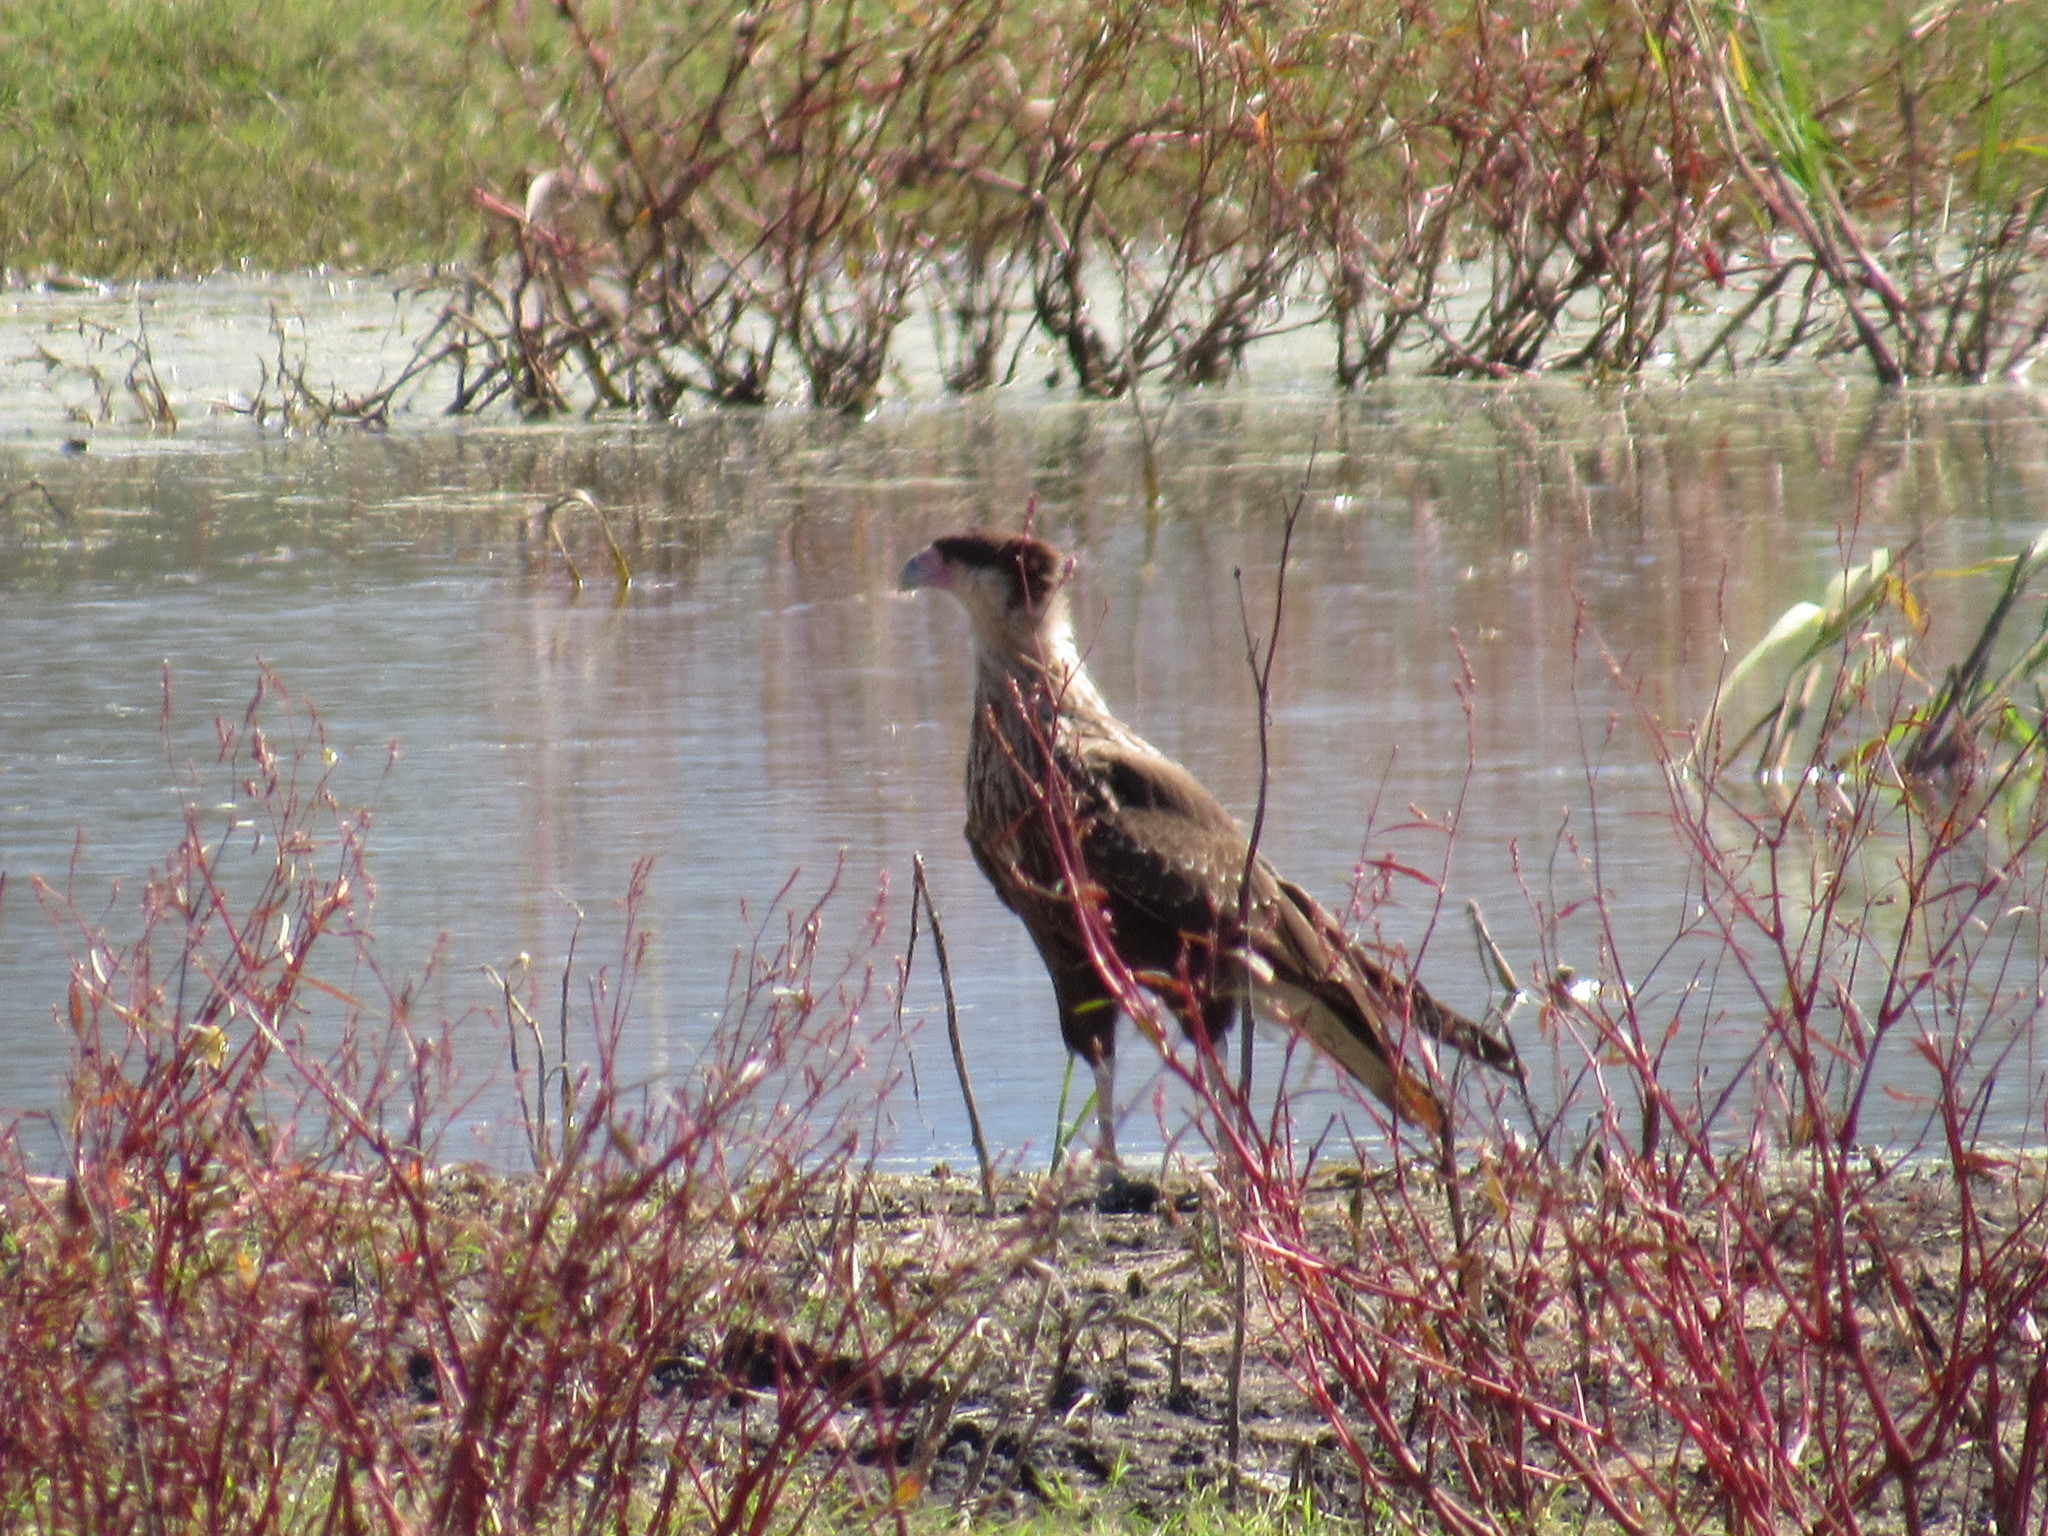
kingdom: Animalia
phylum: Chordata
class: Aves
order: Falconiformes
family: Falconidae
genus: Caracara
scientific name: Caracara plancus
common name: Southern caracara
